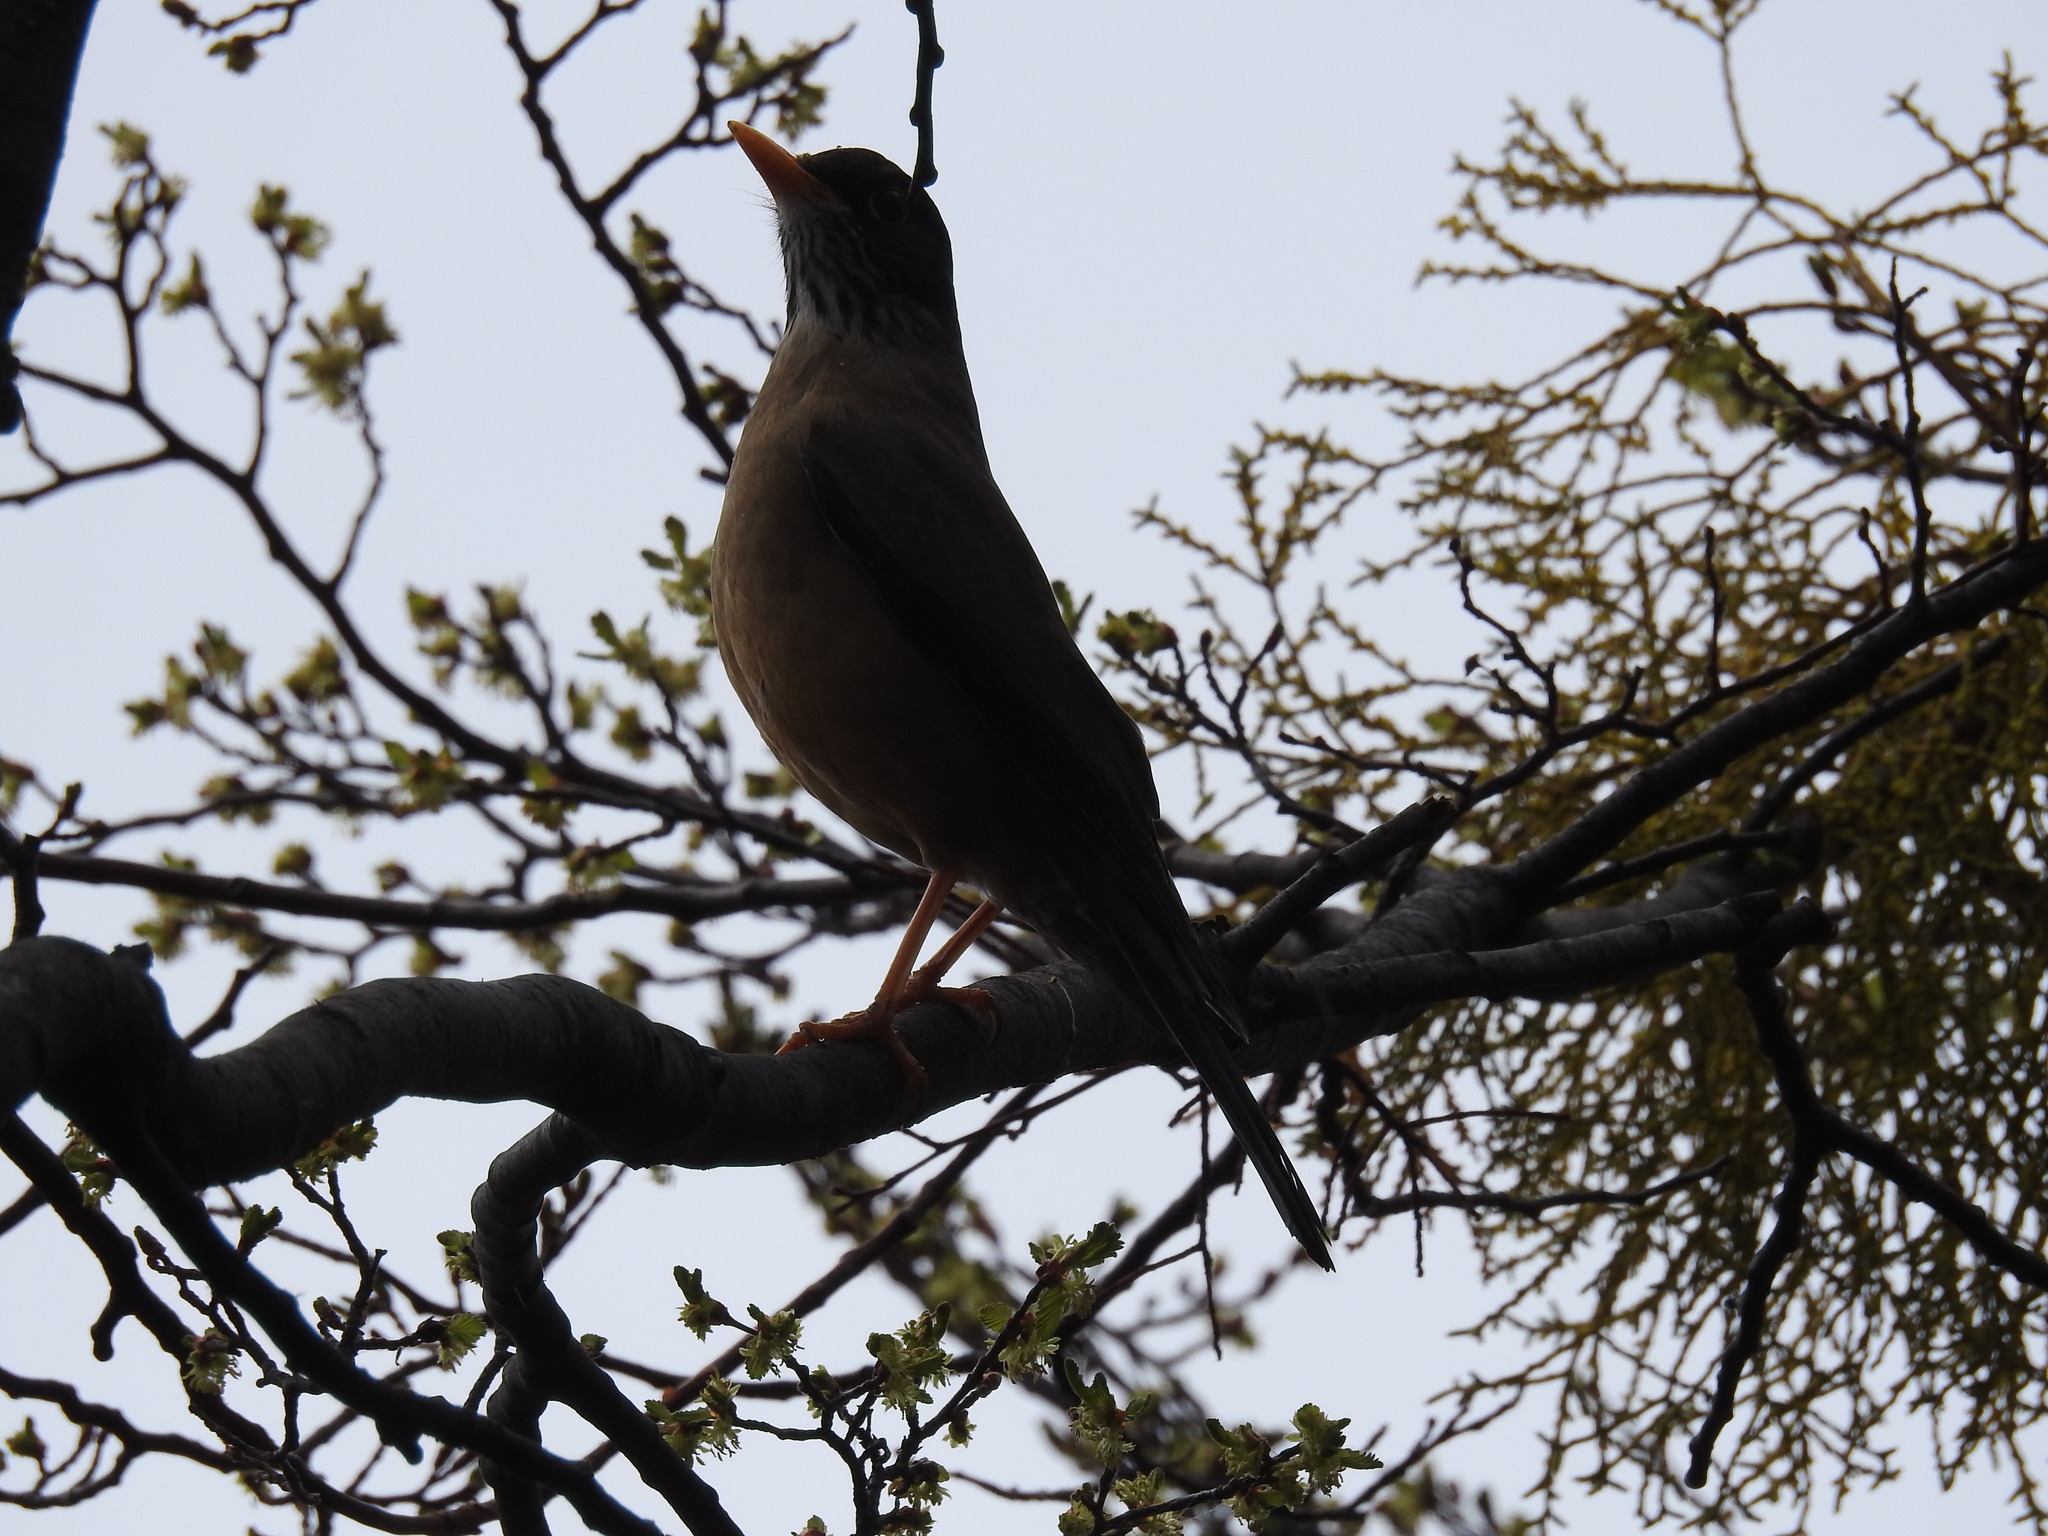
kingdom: Animalia
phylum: Chordata
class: Aves
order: Passeriformes
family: Turdidae
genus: Turdus
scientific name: Turdus falcklandii
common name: Austral thrush
